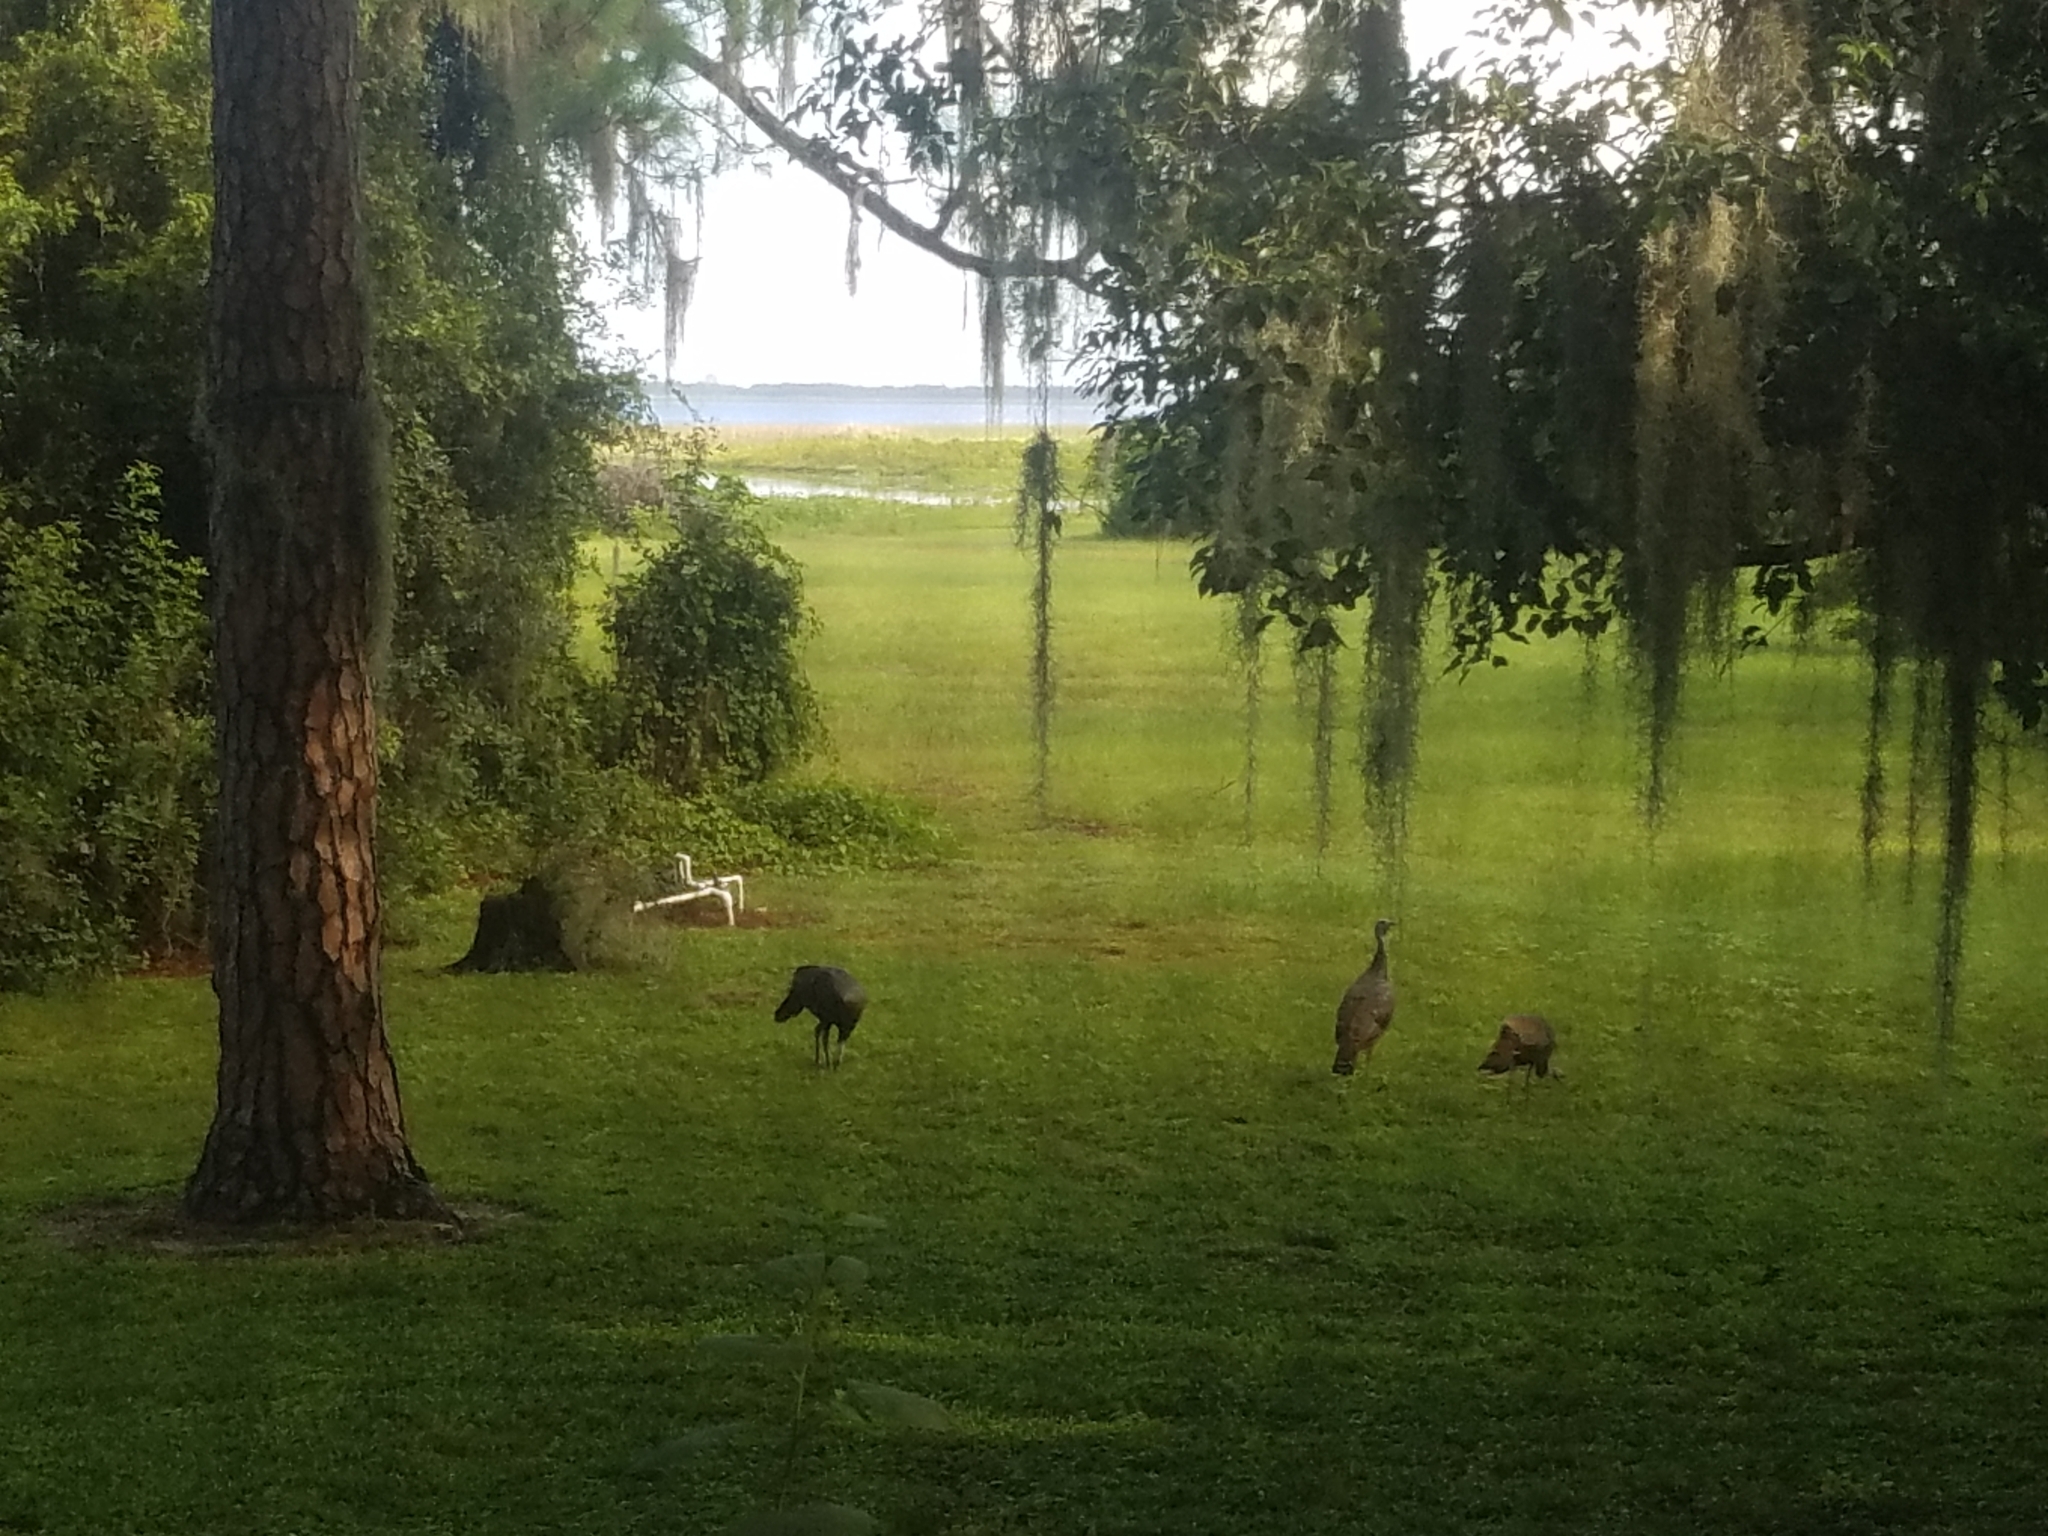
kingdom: Animalia
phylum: Chordata
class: Aves
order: Galliformes
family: Phasianidae
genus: Meleagris
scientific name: Meleagris gallopavo
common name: Wild turkey
